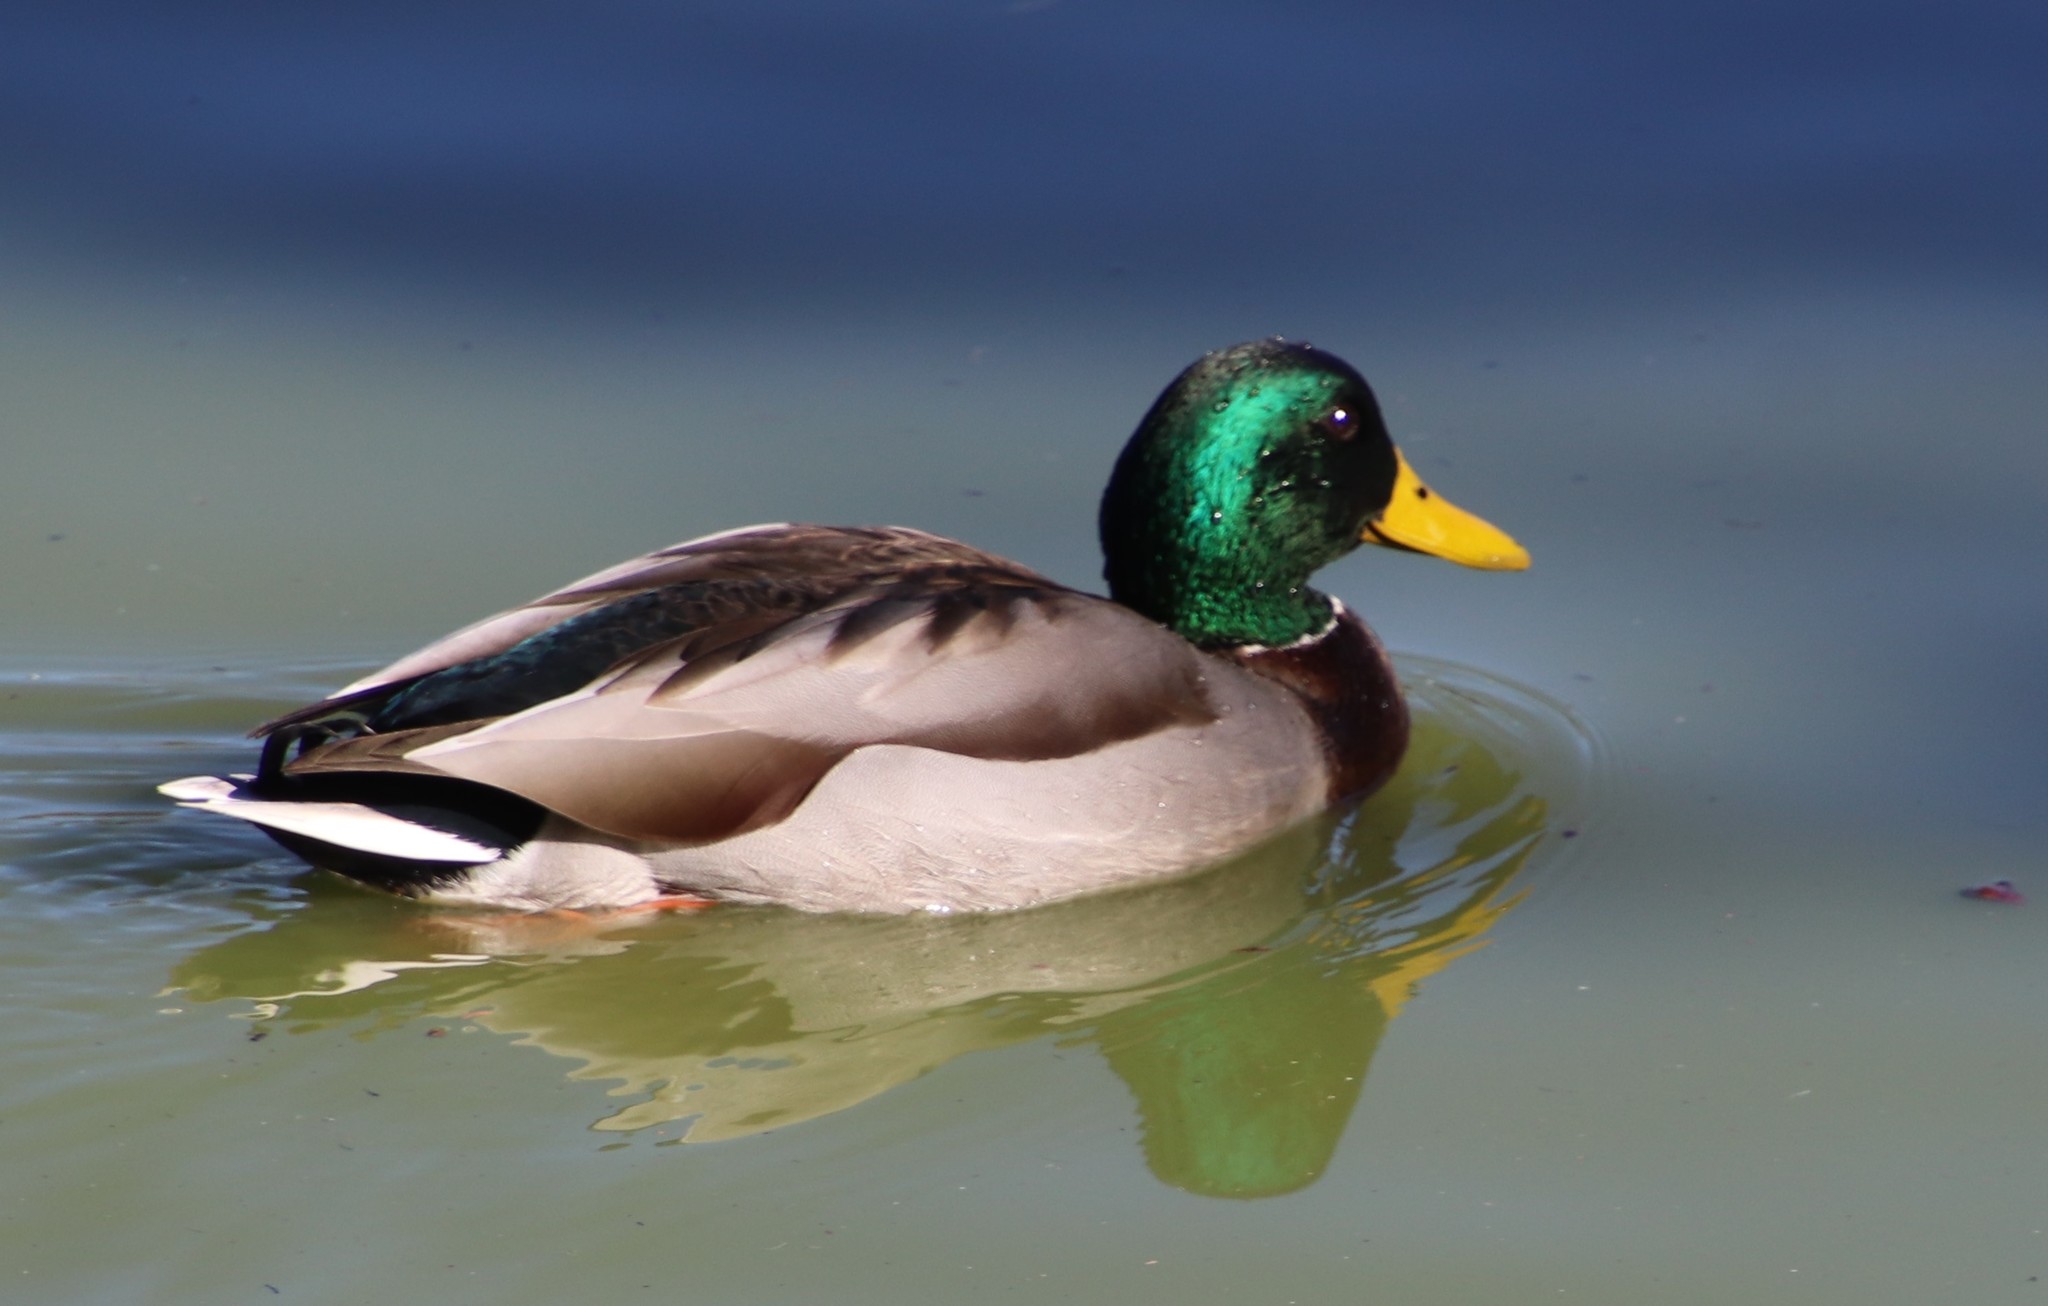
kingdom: Animalia
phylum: Chordata
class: Aves
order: Anseriformes
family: Anatidae
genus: Anas
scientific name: Anas platyrhynchos
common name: Mallard
